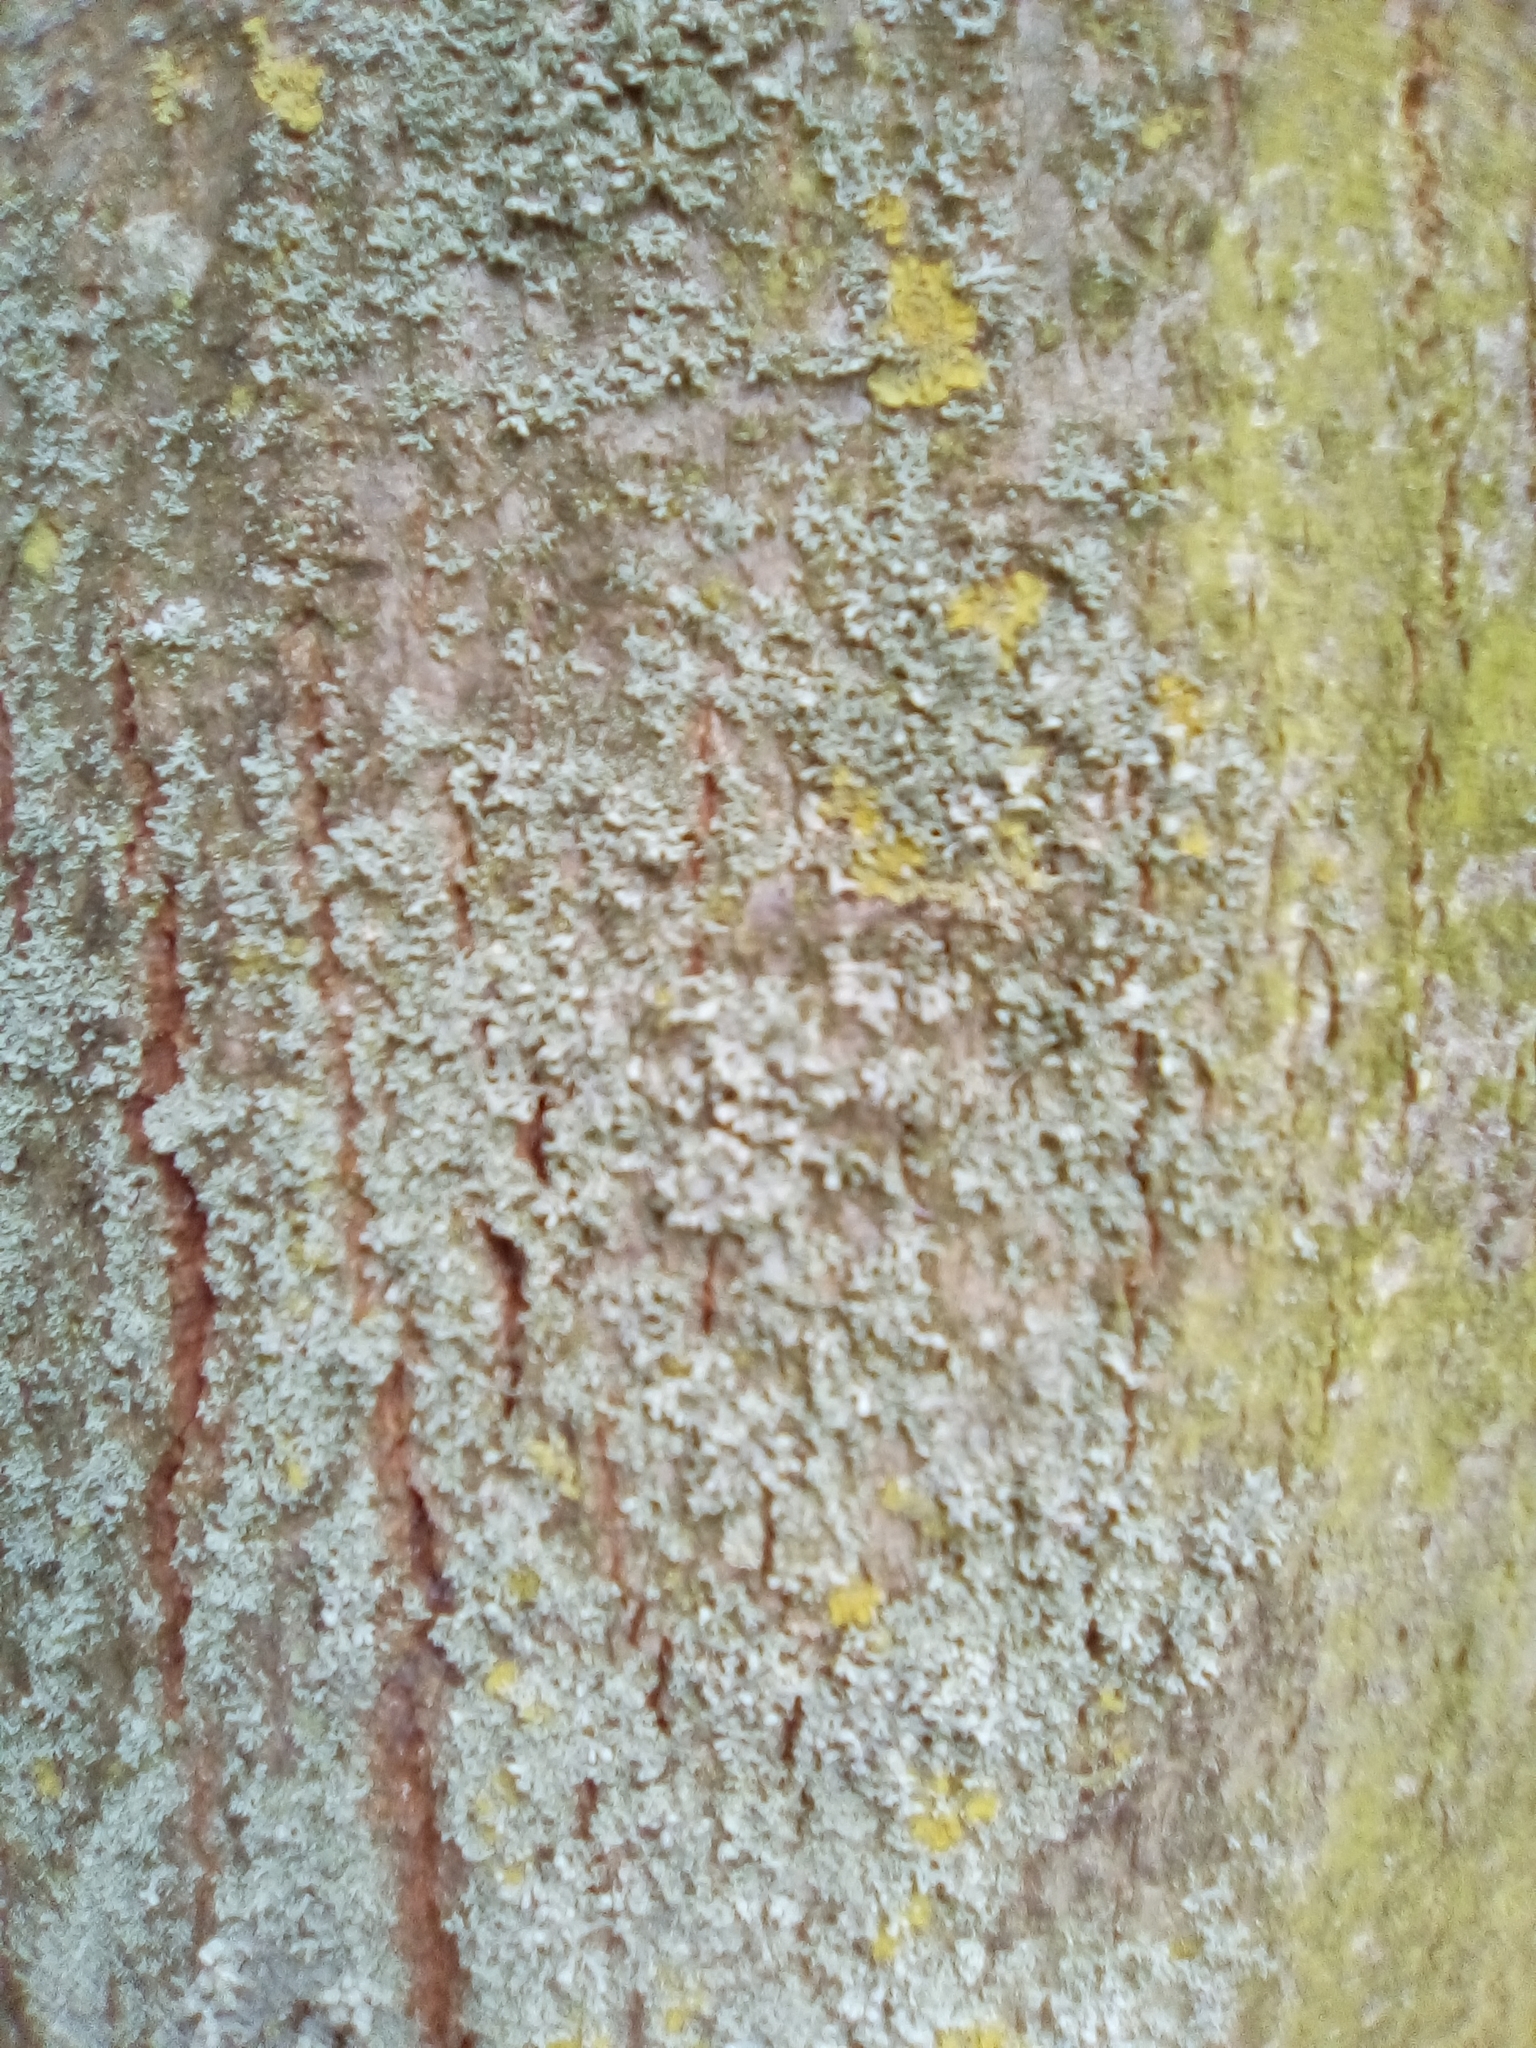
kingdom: Fungi
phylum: Ascomycota
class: Lecanoromycetes
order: Caliciales
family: Physciaceae
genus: Physcia
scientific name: Physcia tenella
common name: Fringed rosette lichen
